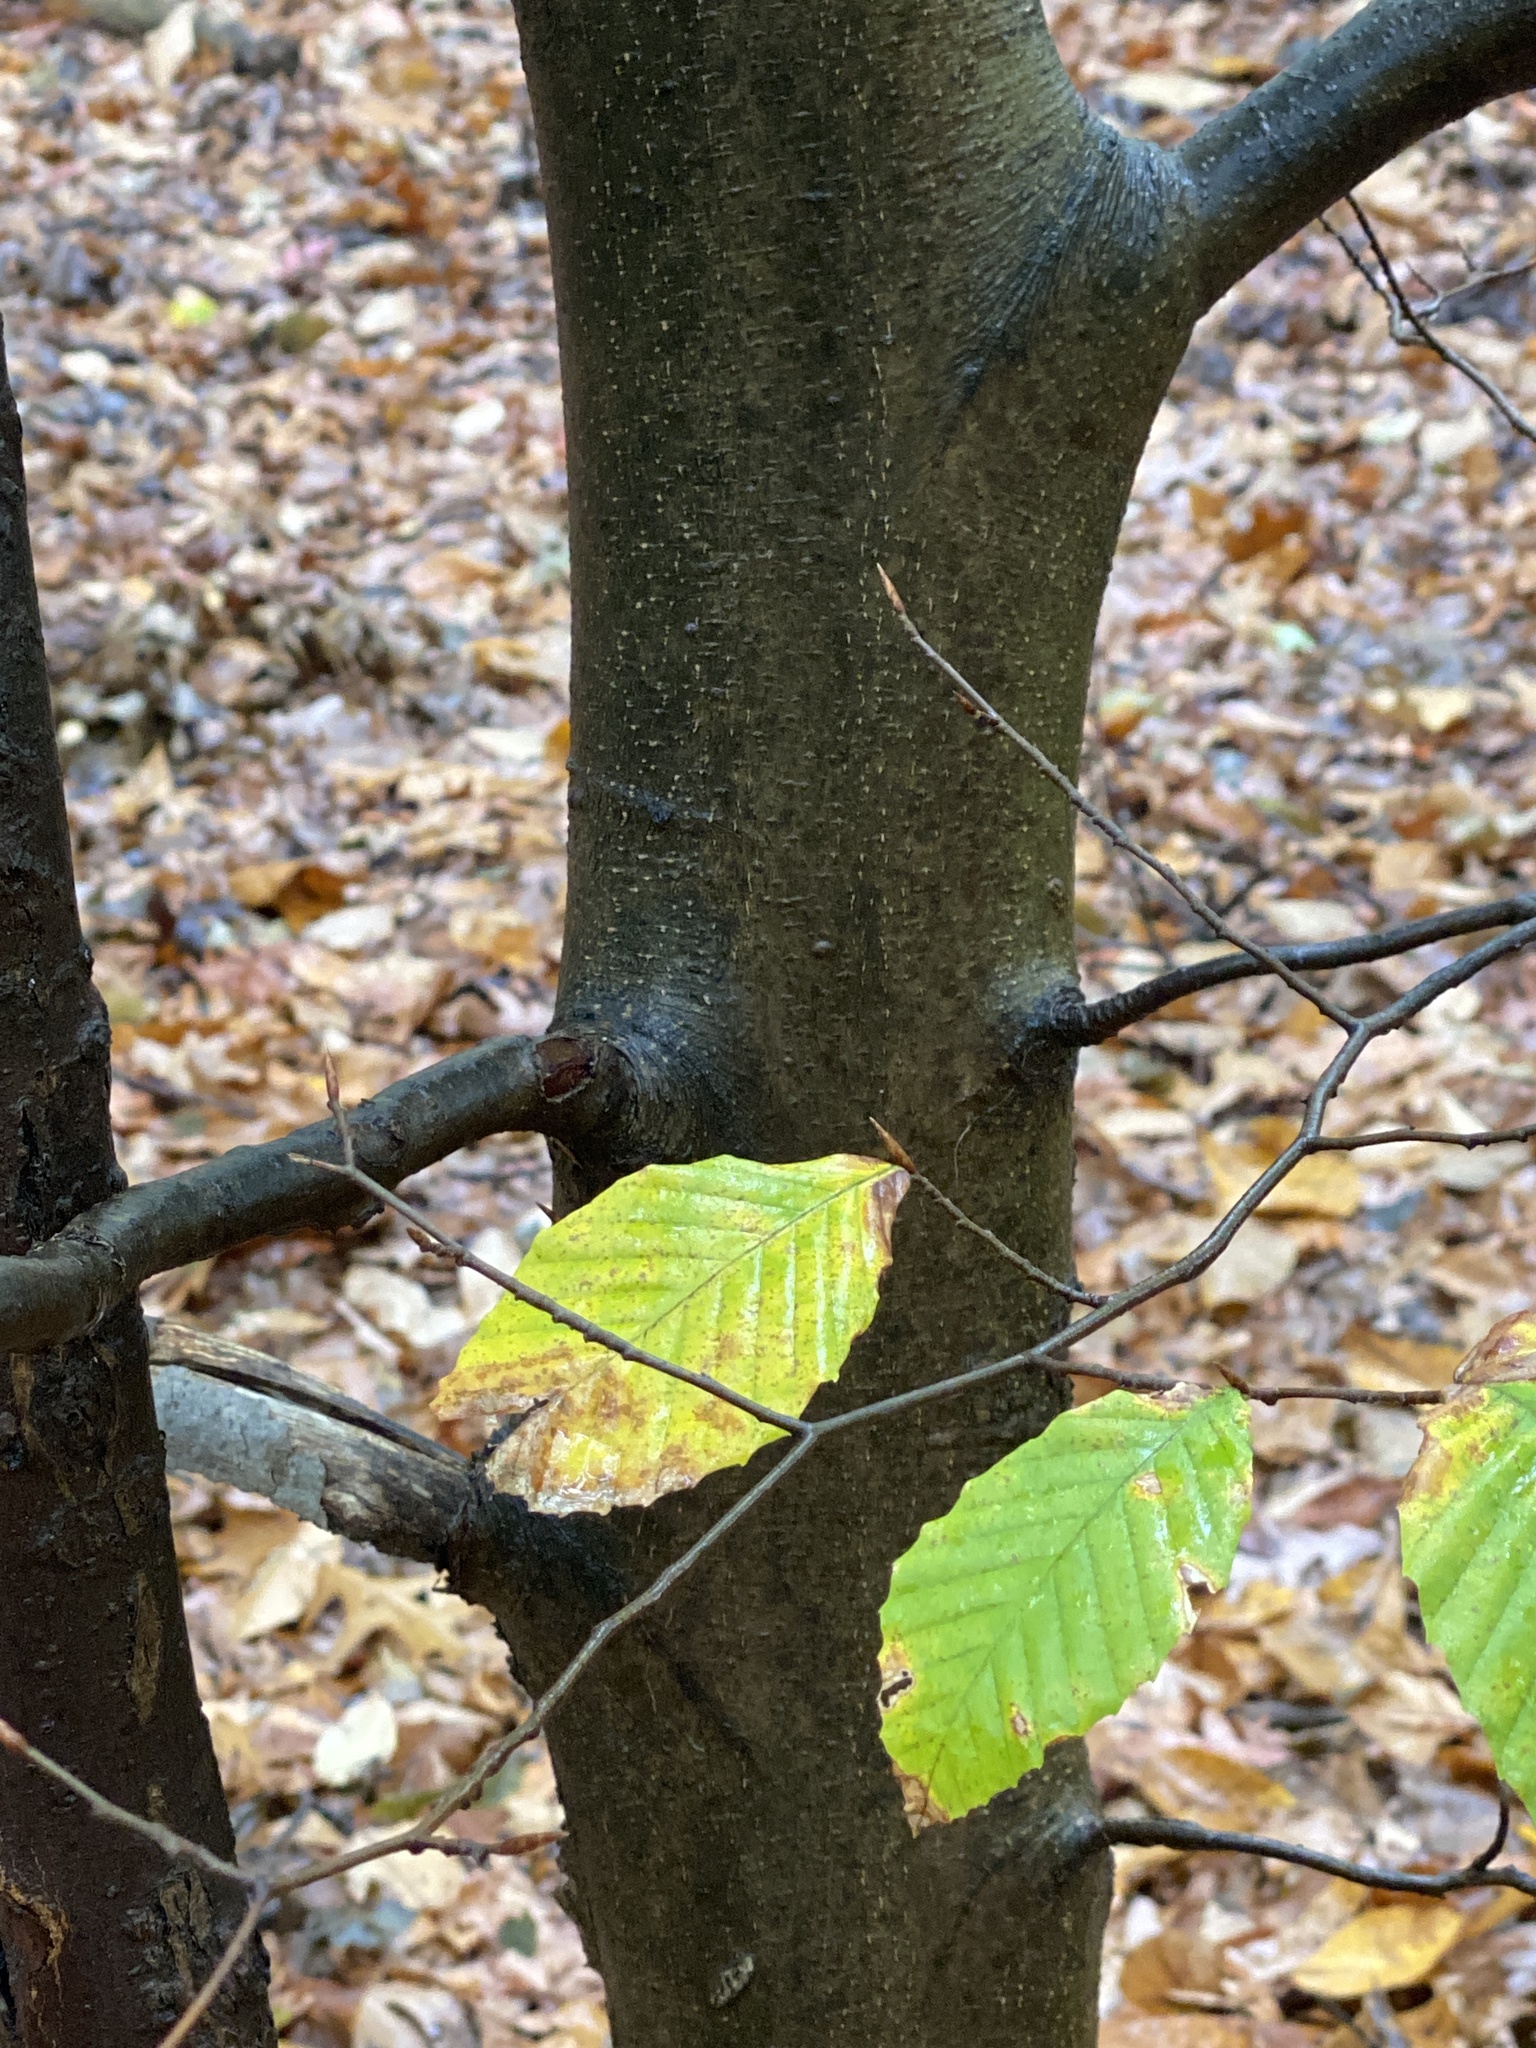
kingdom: Plantae
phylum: Tracheophyta
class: Magnoliopsida
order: Fagales
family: Fagaceae
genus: Fagus
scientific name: Fagus grandifolia
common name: American beech
